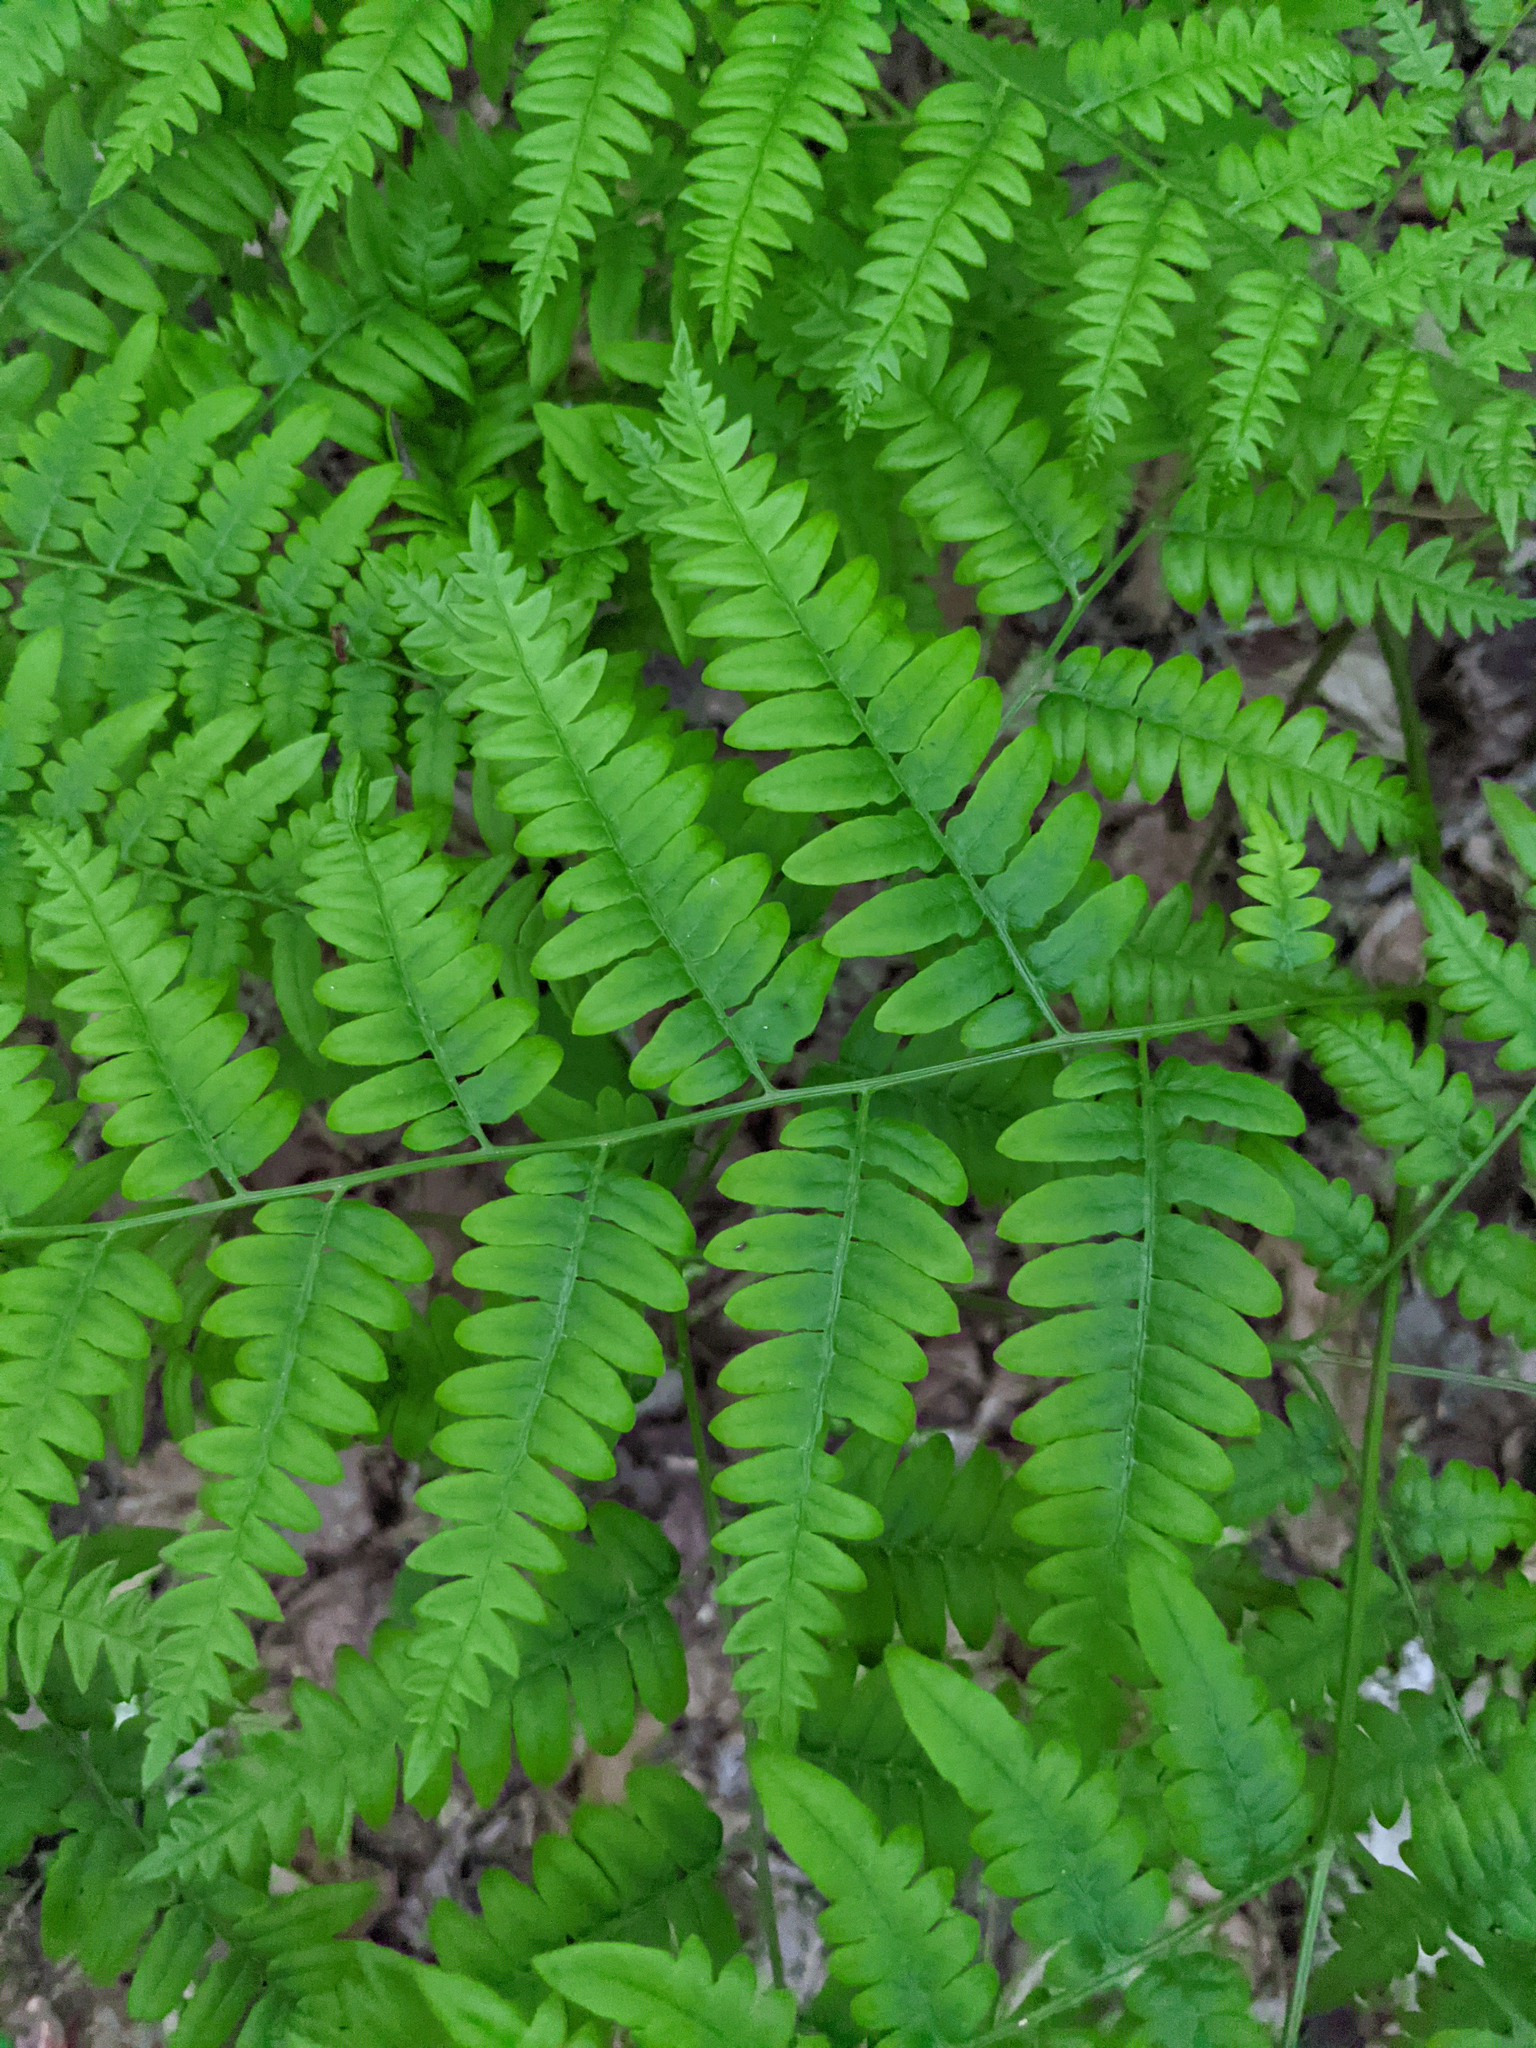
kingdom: Plantae
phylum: Tracheophyta
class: Polypodiopsida
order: Polypodiales
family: Dennstaedtiaceae
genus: Pteridium
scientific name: Pteridium aquilinum
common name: Bracken
